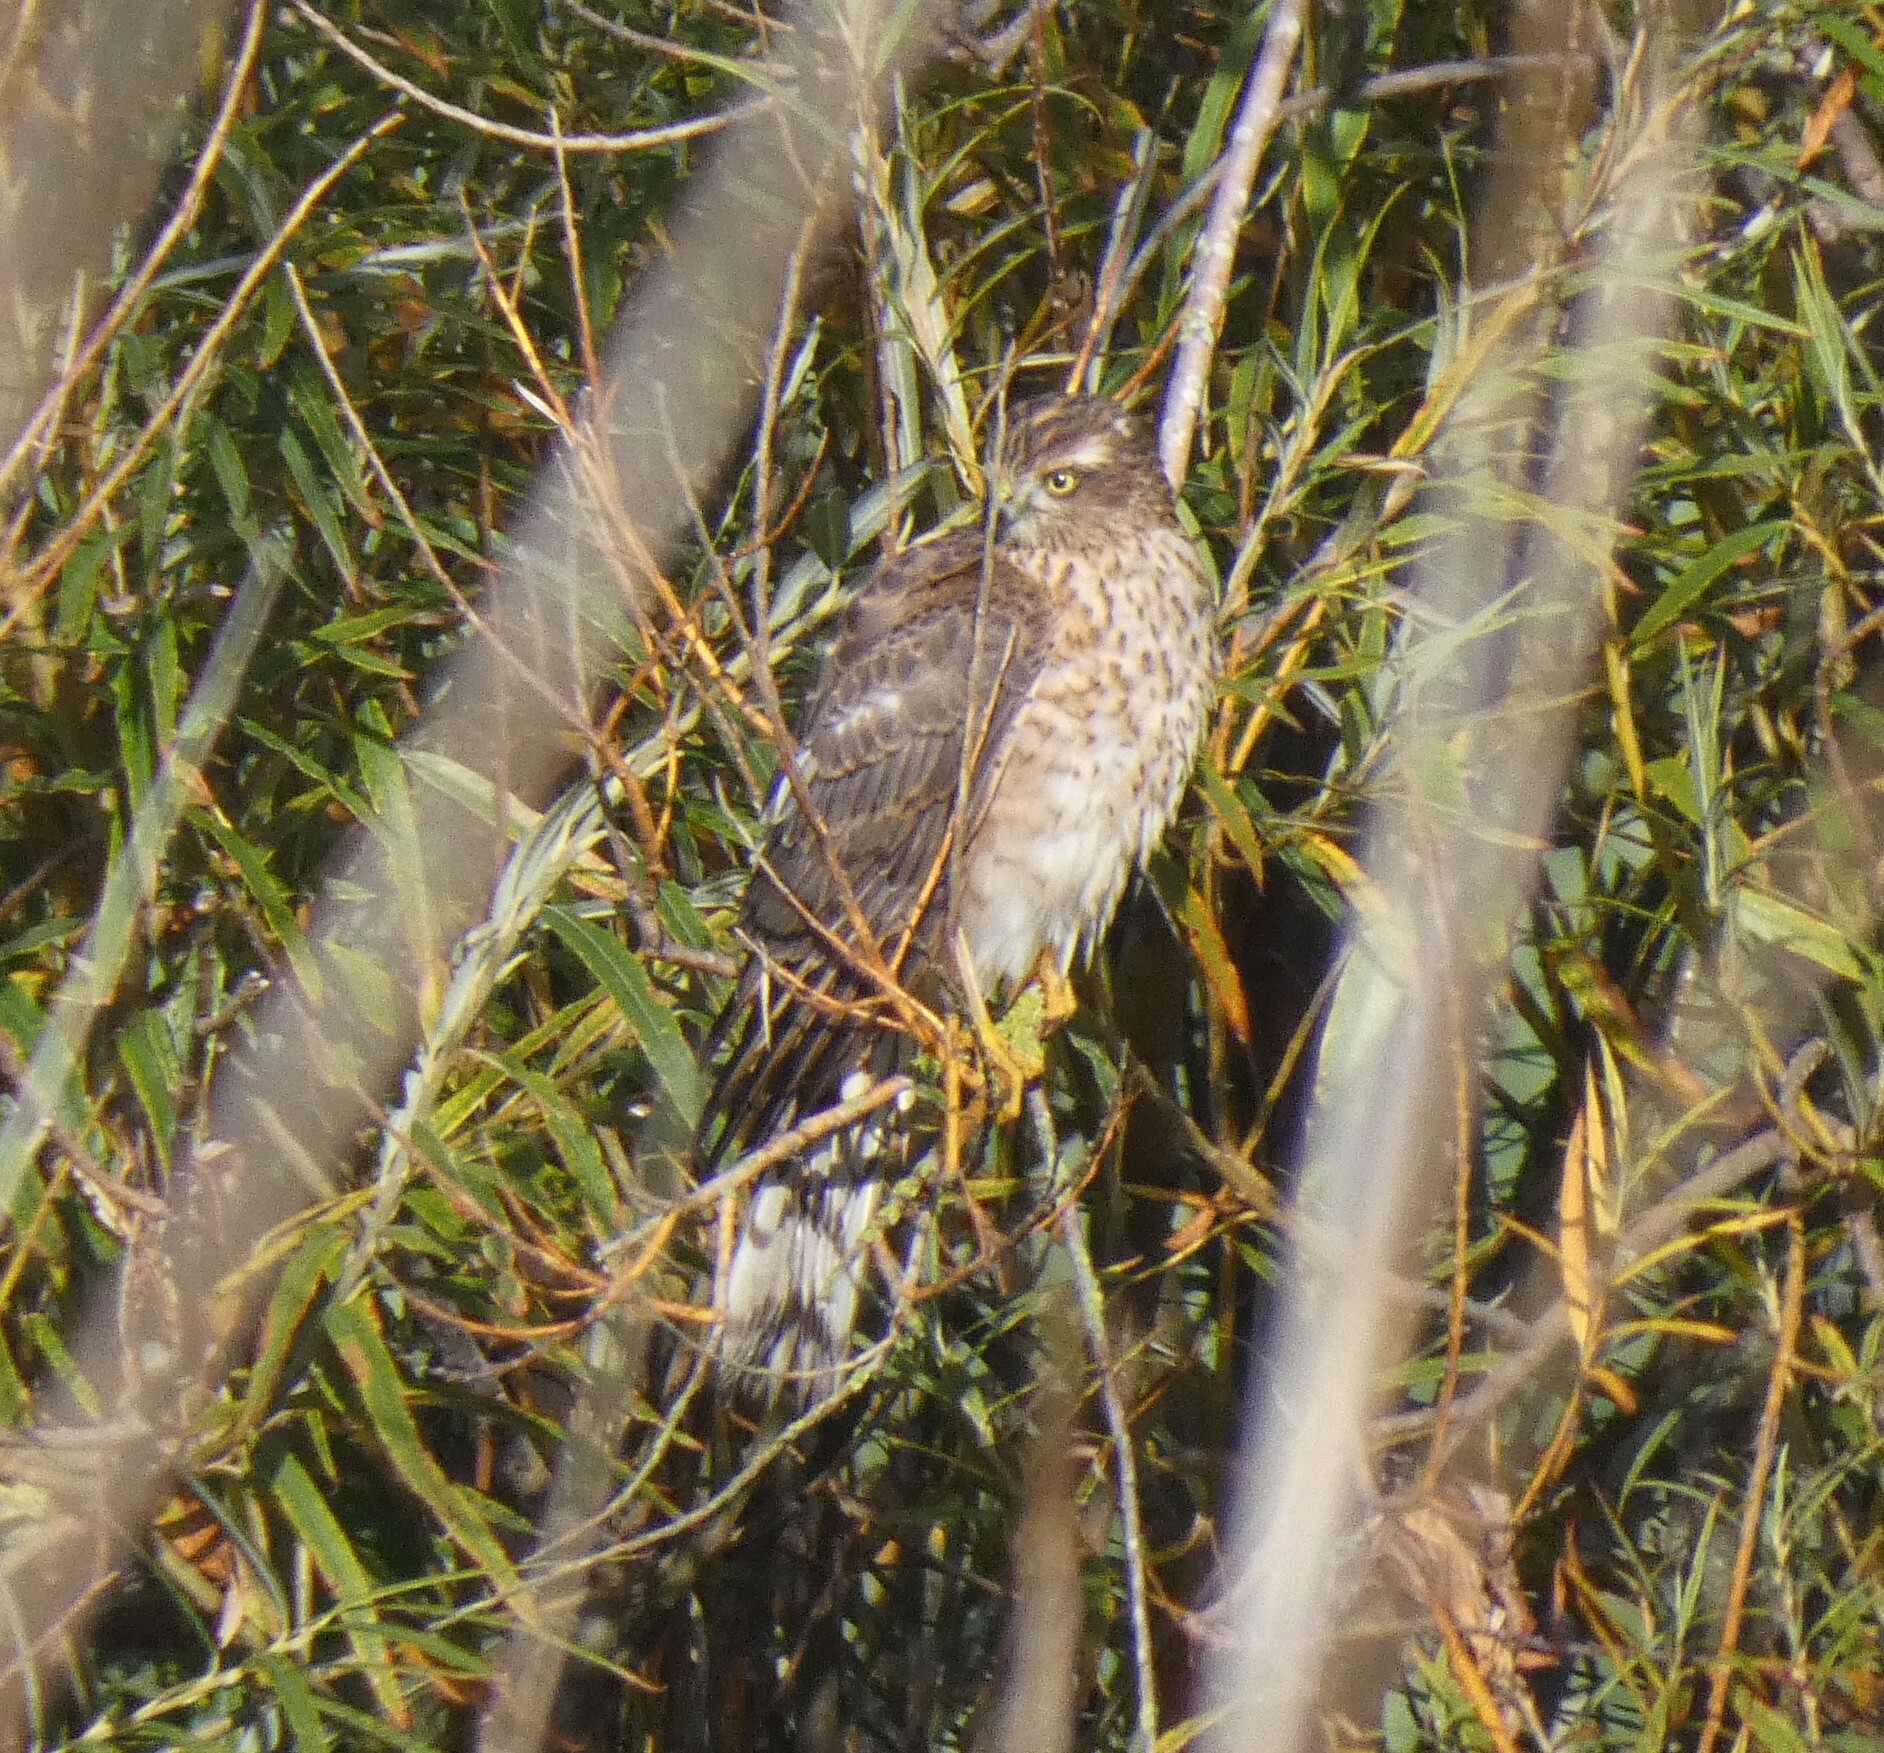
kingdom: Animalia
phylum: Chordata
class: Aves
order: Accipitriformes
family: Accipitridae
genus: Accipiter
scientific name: Accipiter nisus
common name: Eurasian sparrowhawk
